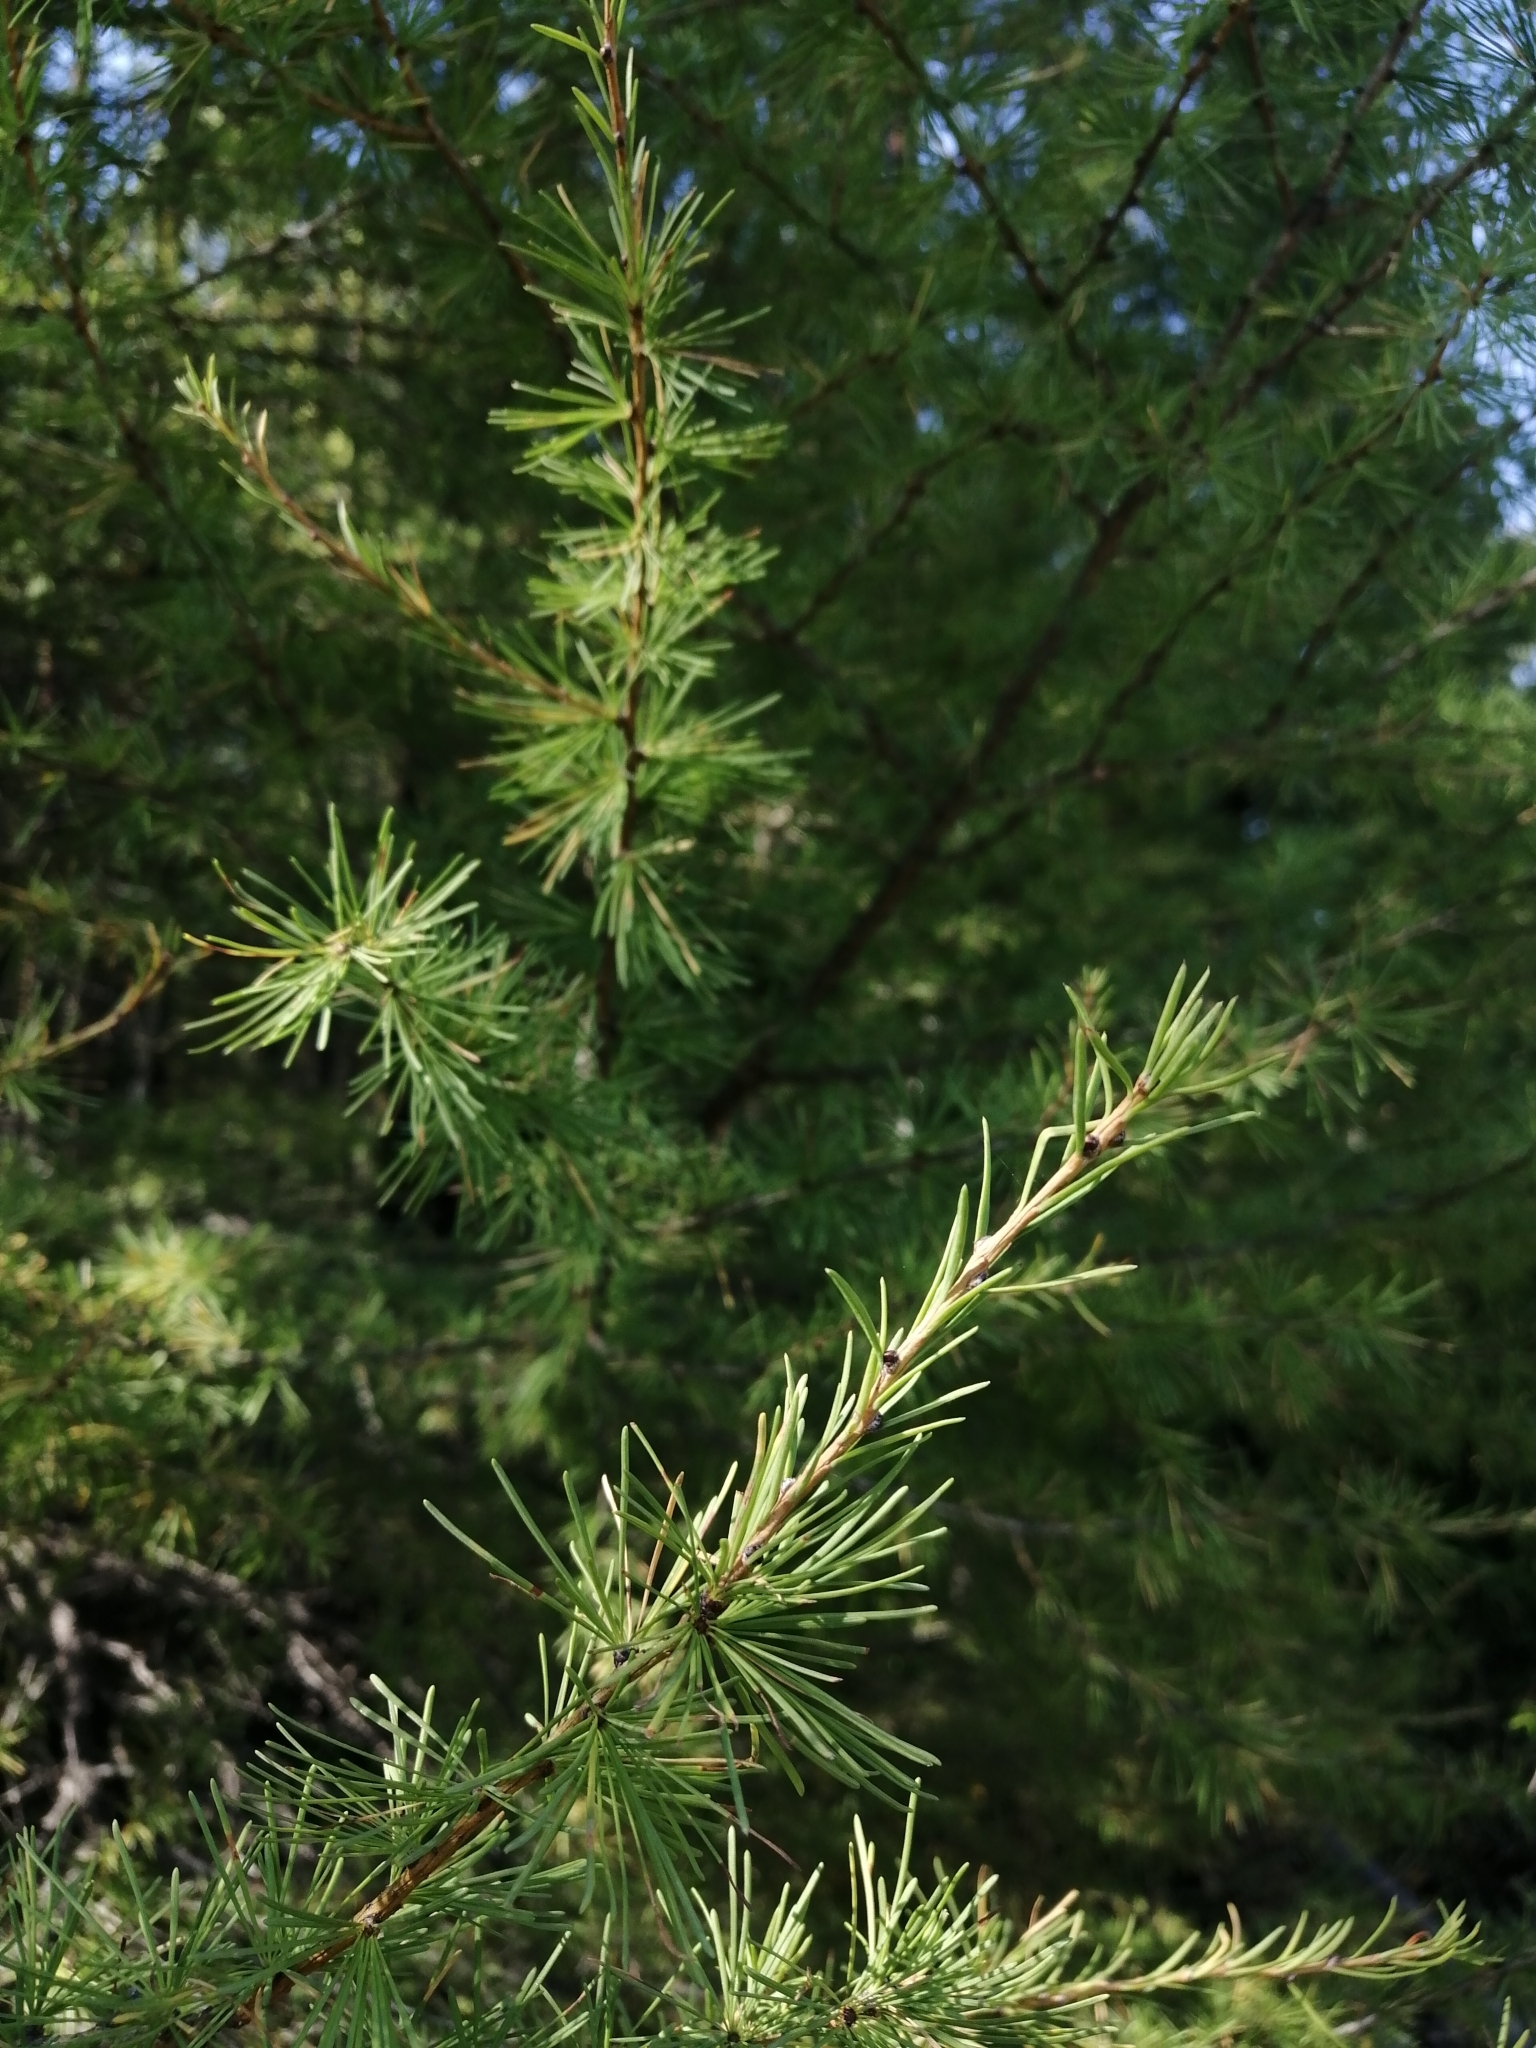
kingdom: Plantae
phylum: Tracheophyta
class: Pinopsida
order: Pinales
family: Pinaceae
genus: Larix
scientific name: Larix sibirica
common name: Siberian larch
